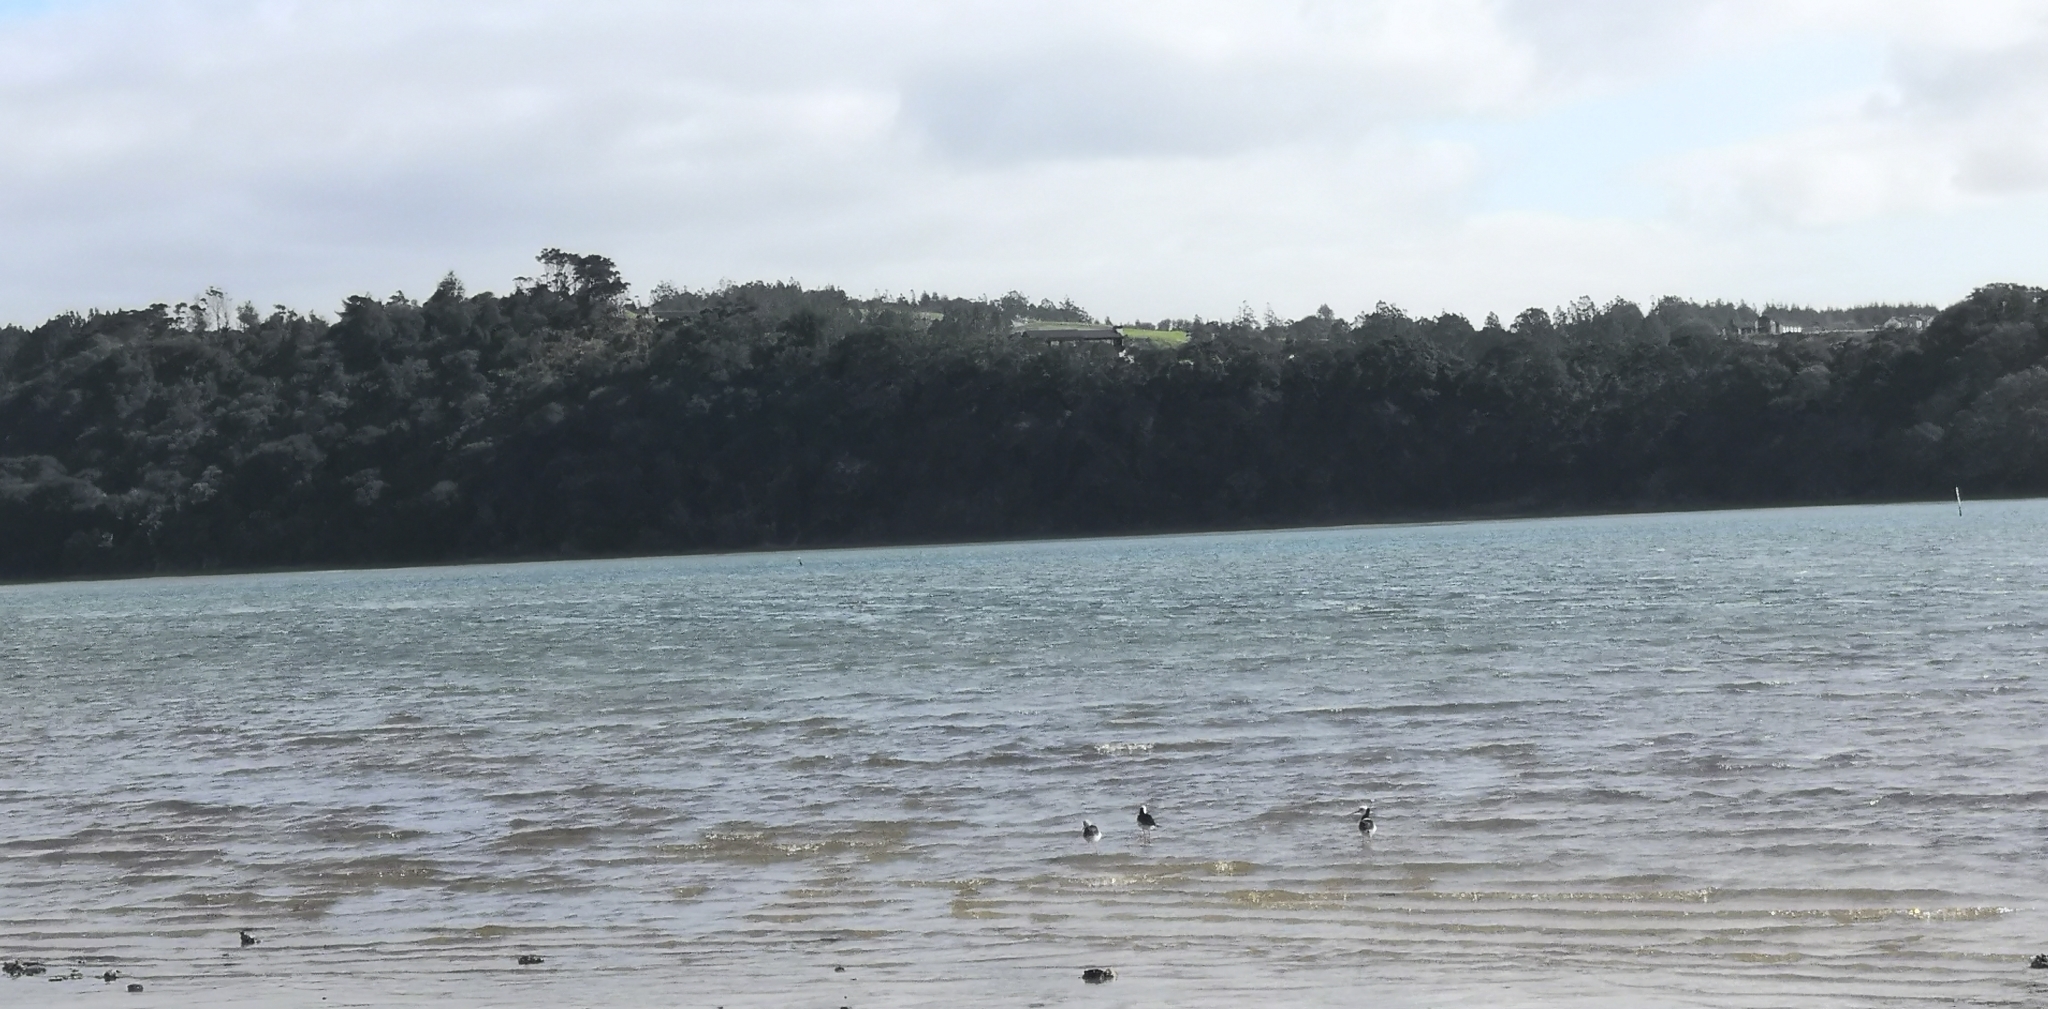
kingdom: Animalia
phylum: Chordata
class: Aves
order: Charadriiformes
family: Recurvirostridae
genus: Himantopus
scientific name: Himantopus leucocephalus
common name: White-headed stilt
